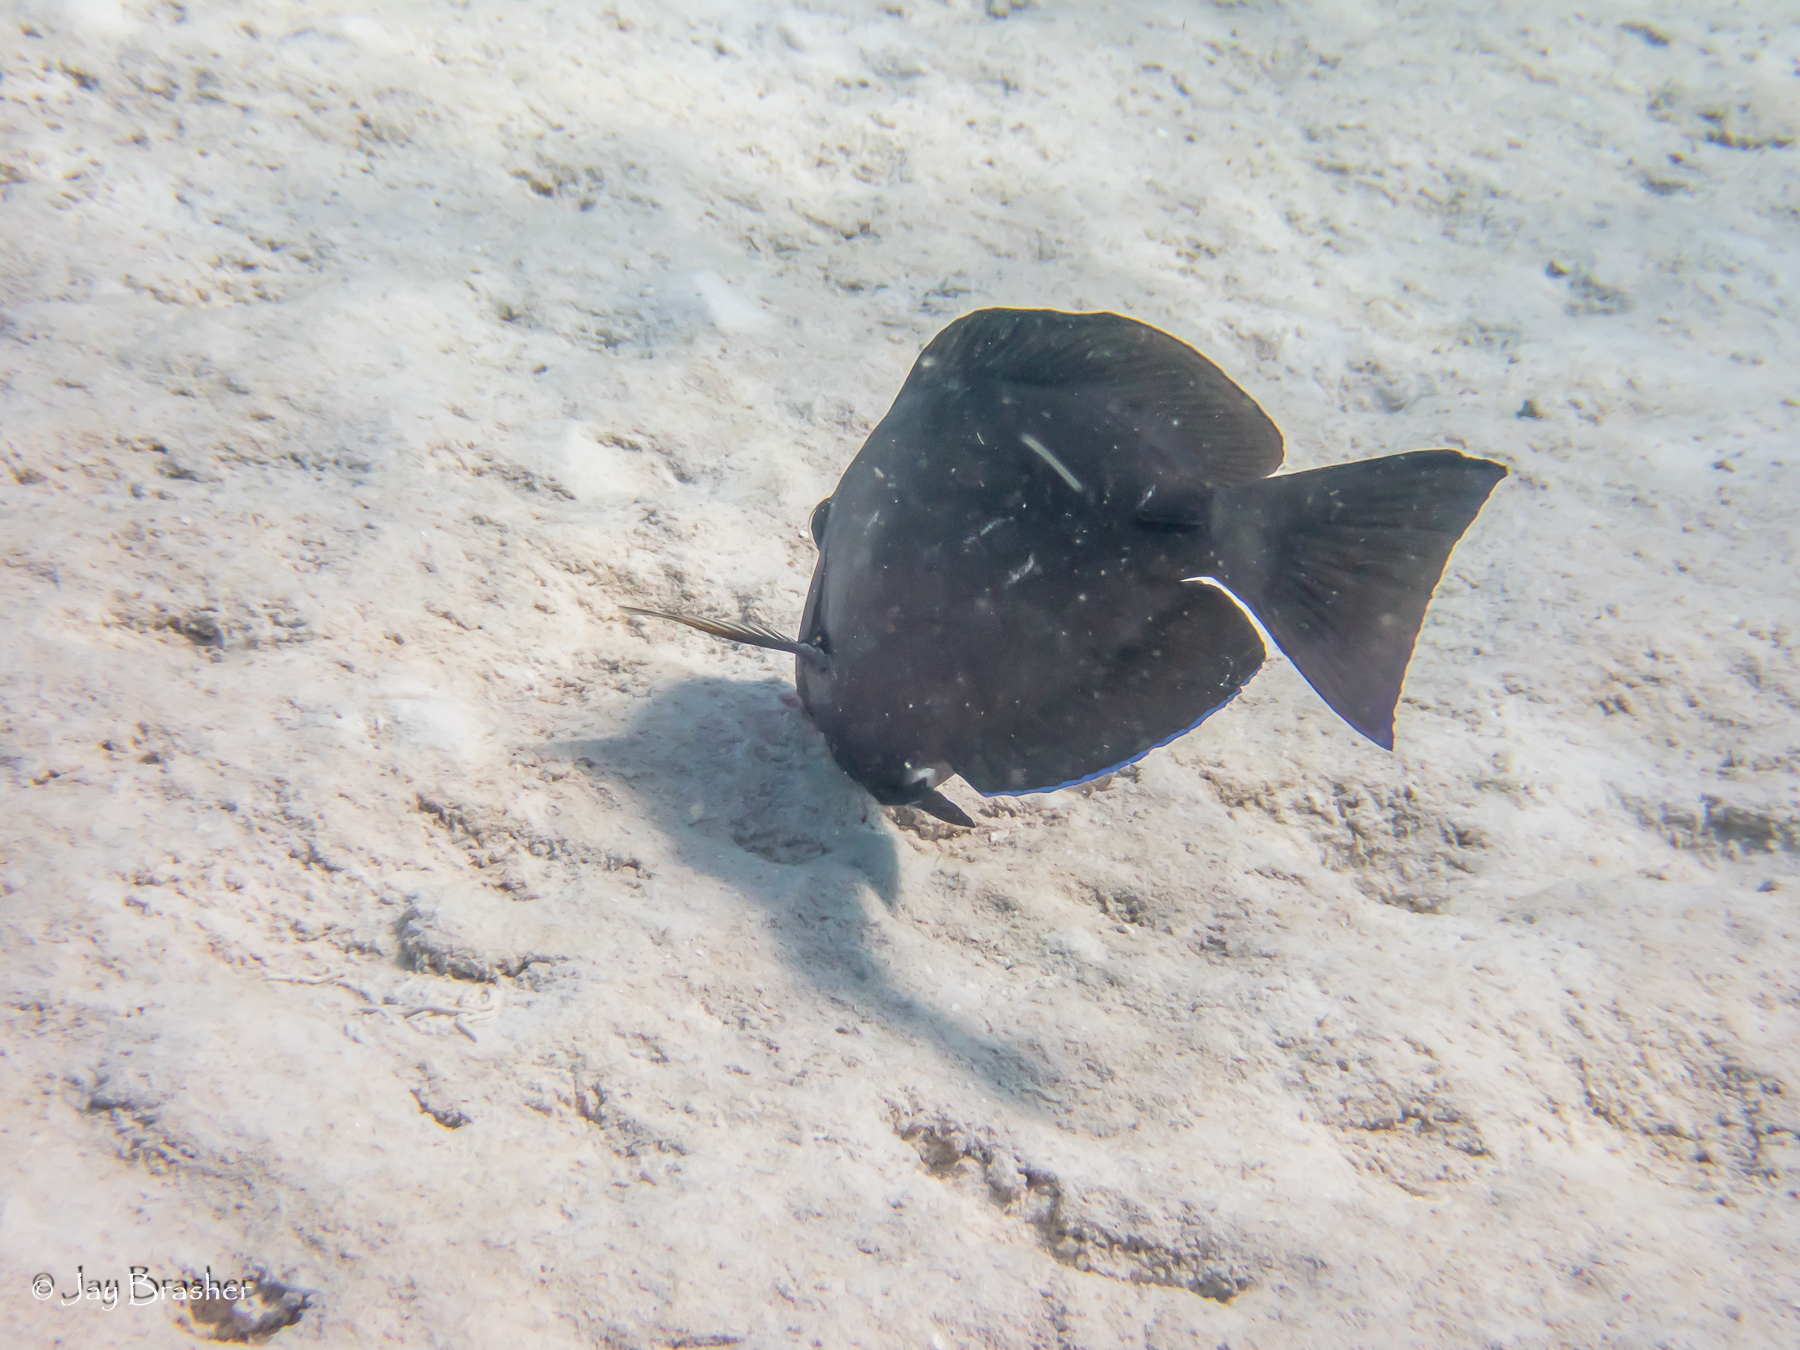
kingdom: Animalia
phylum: Chordata
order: Perciformes
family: Acanthuridae
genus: Acanthurus
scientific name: Acanthurus bahianus
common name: Ocean surgeon
